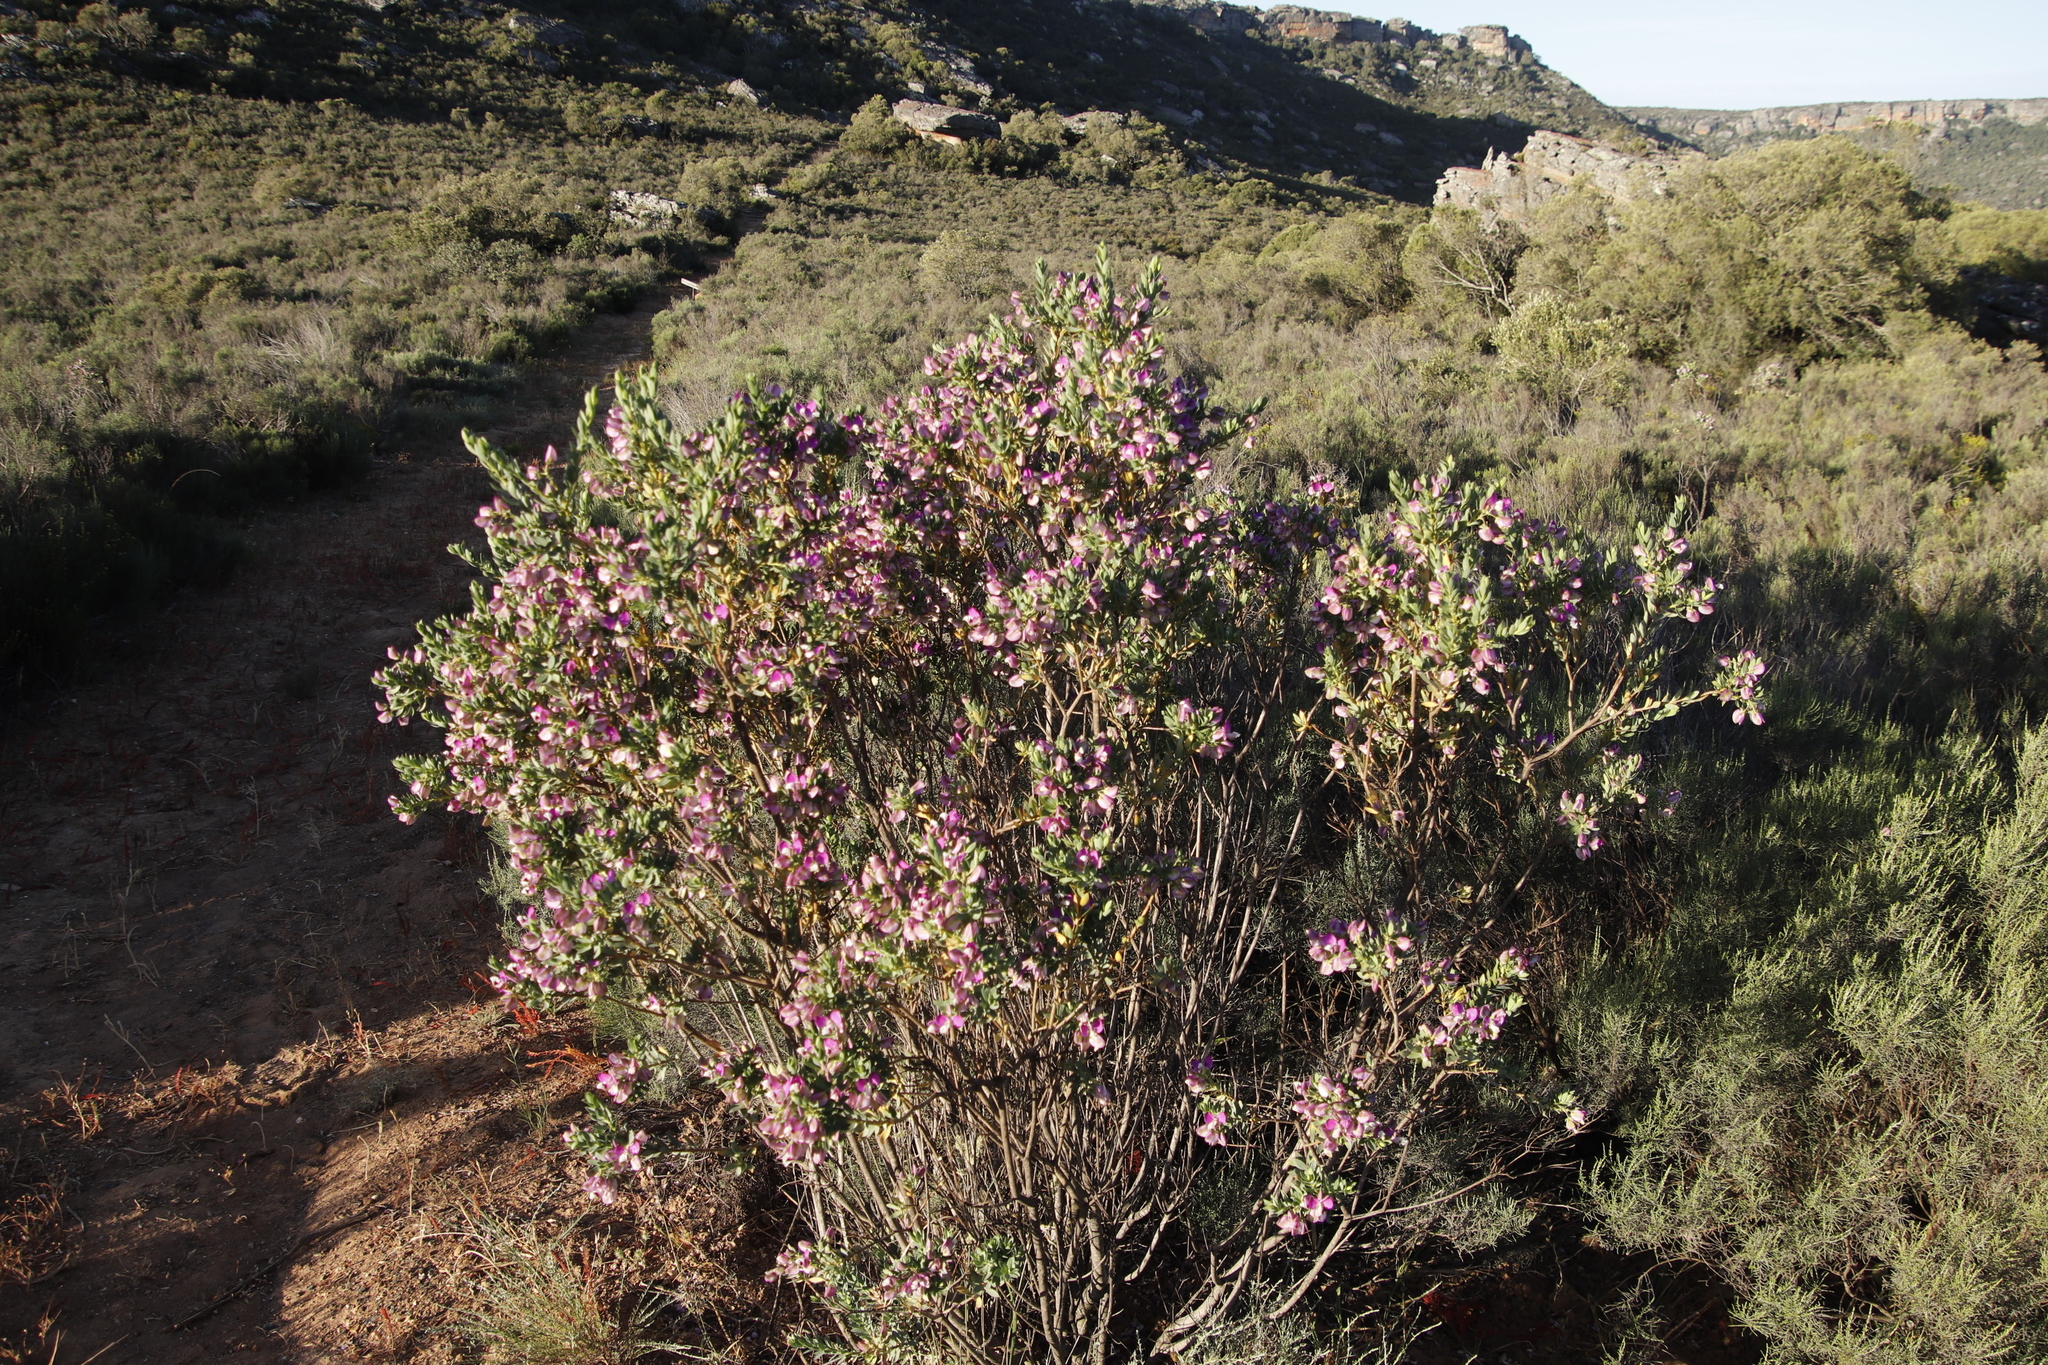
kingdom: Plantae
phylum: Tracheophyta
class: Magnoliopsida
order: Fabales
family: Polygalaceae
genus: Polygala
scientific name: Polygala myrtifolia
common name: Myrtle-leaf milkwort
